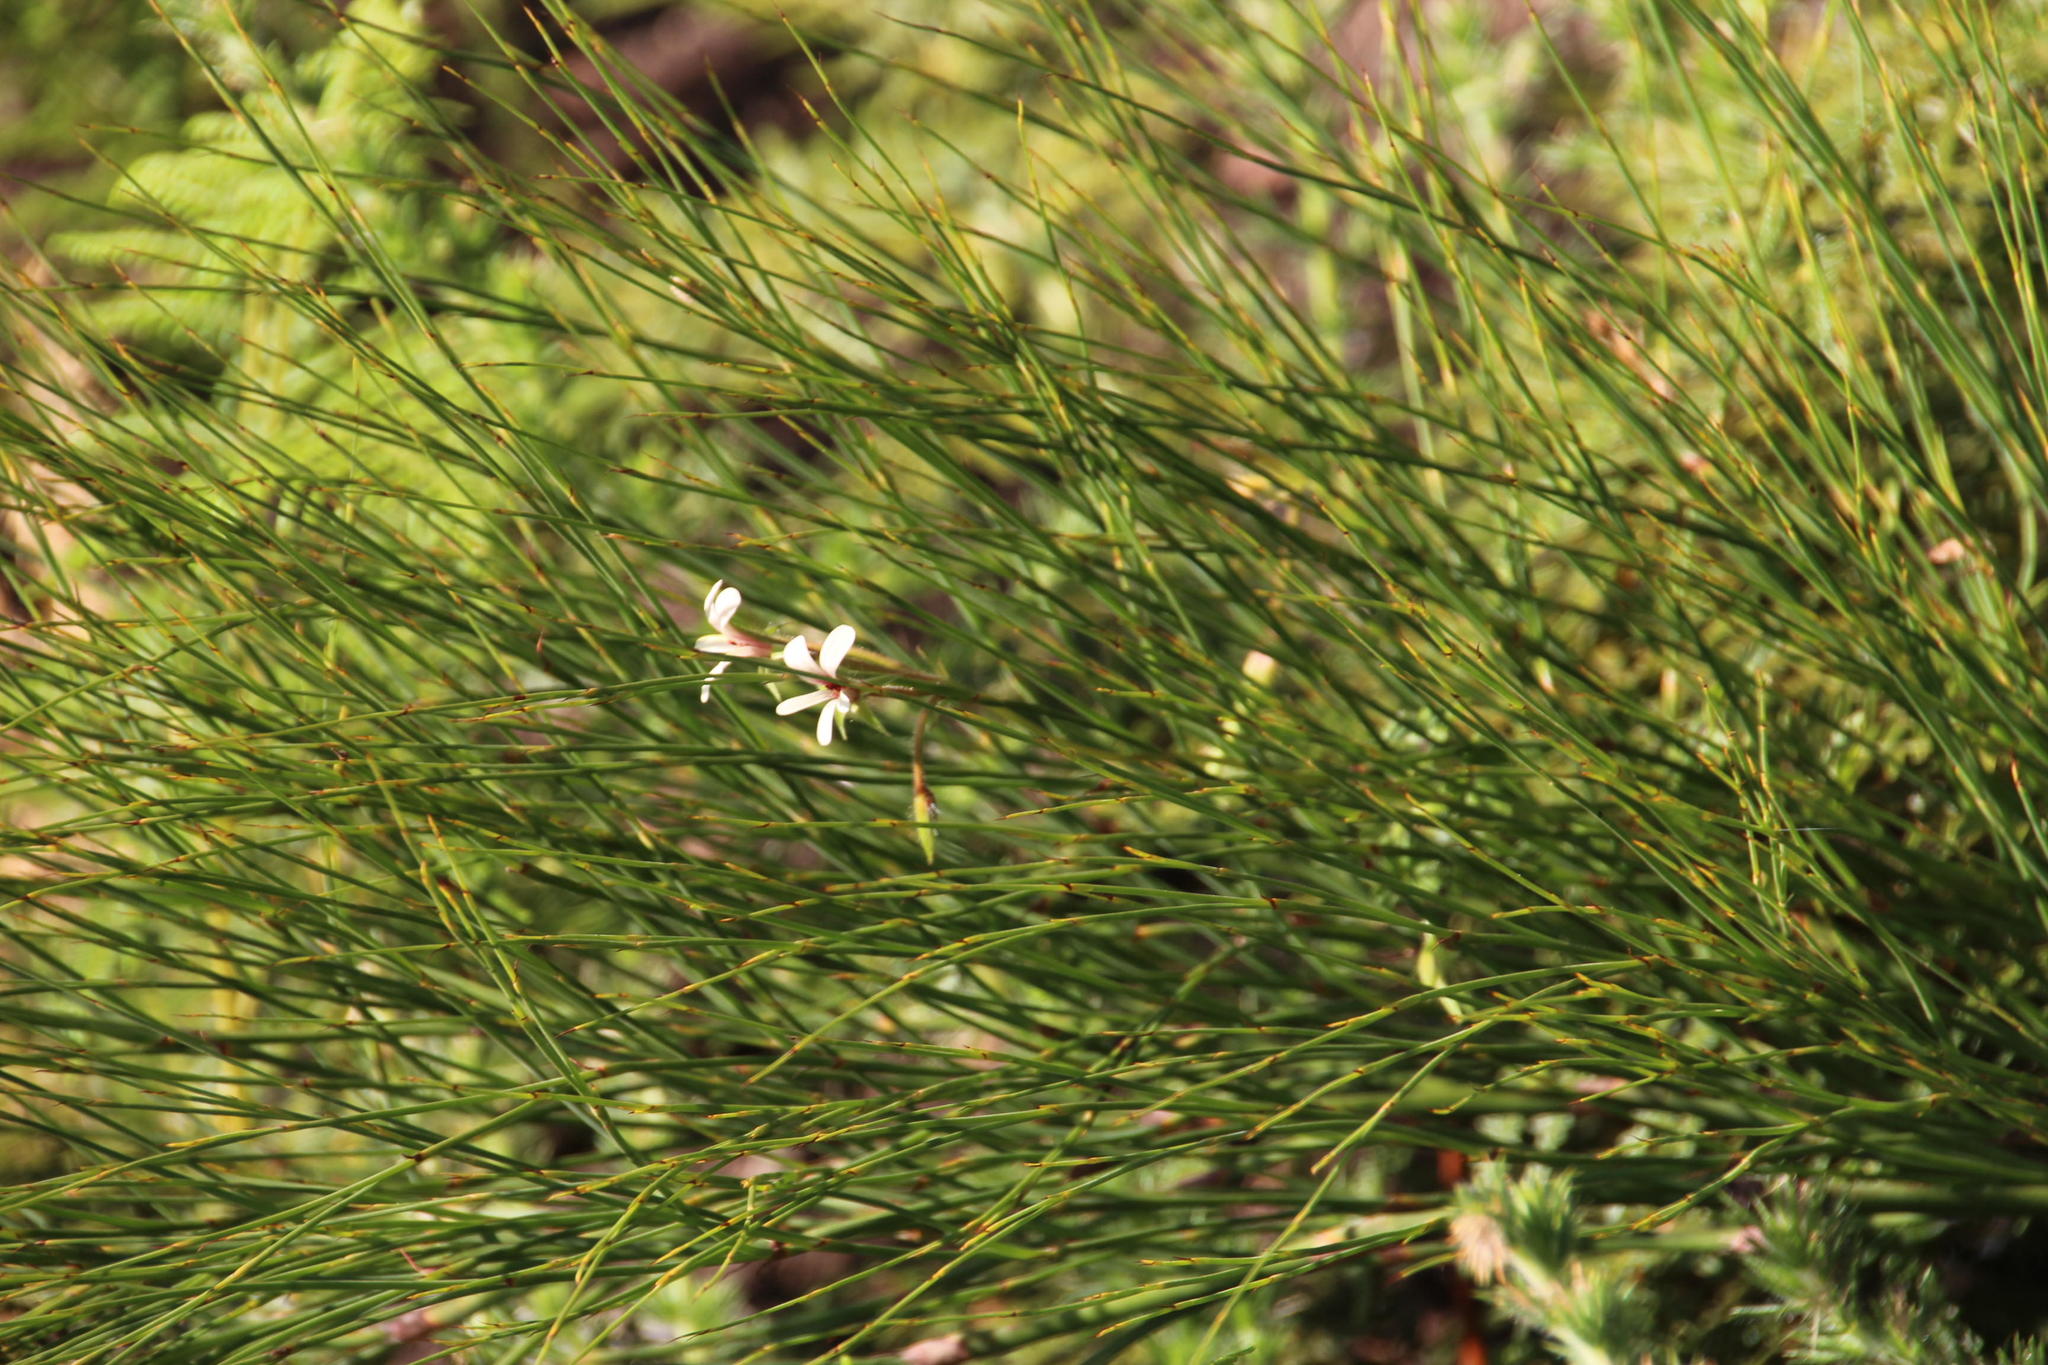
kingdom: Plantae
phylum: Tracheophyta
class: Magnoliopsida
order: Geraniales
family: Geraniaceae
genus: Pelargonium
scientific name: Pelargonium elongatum
